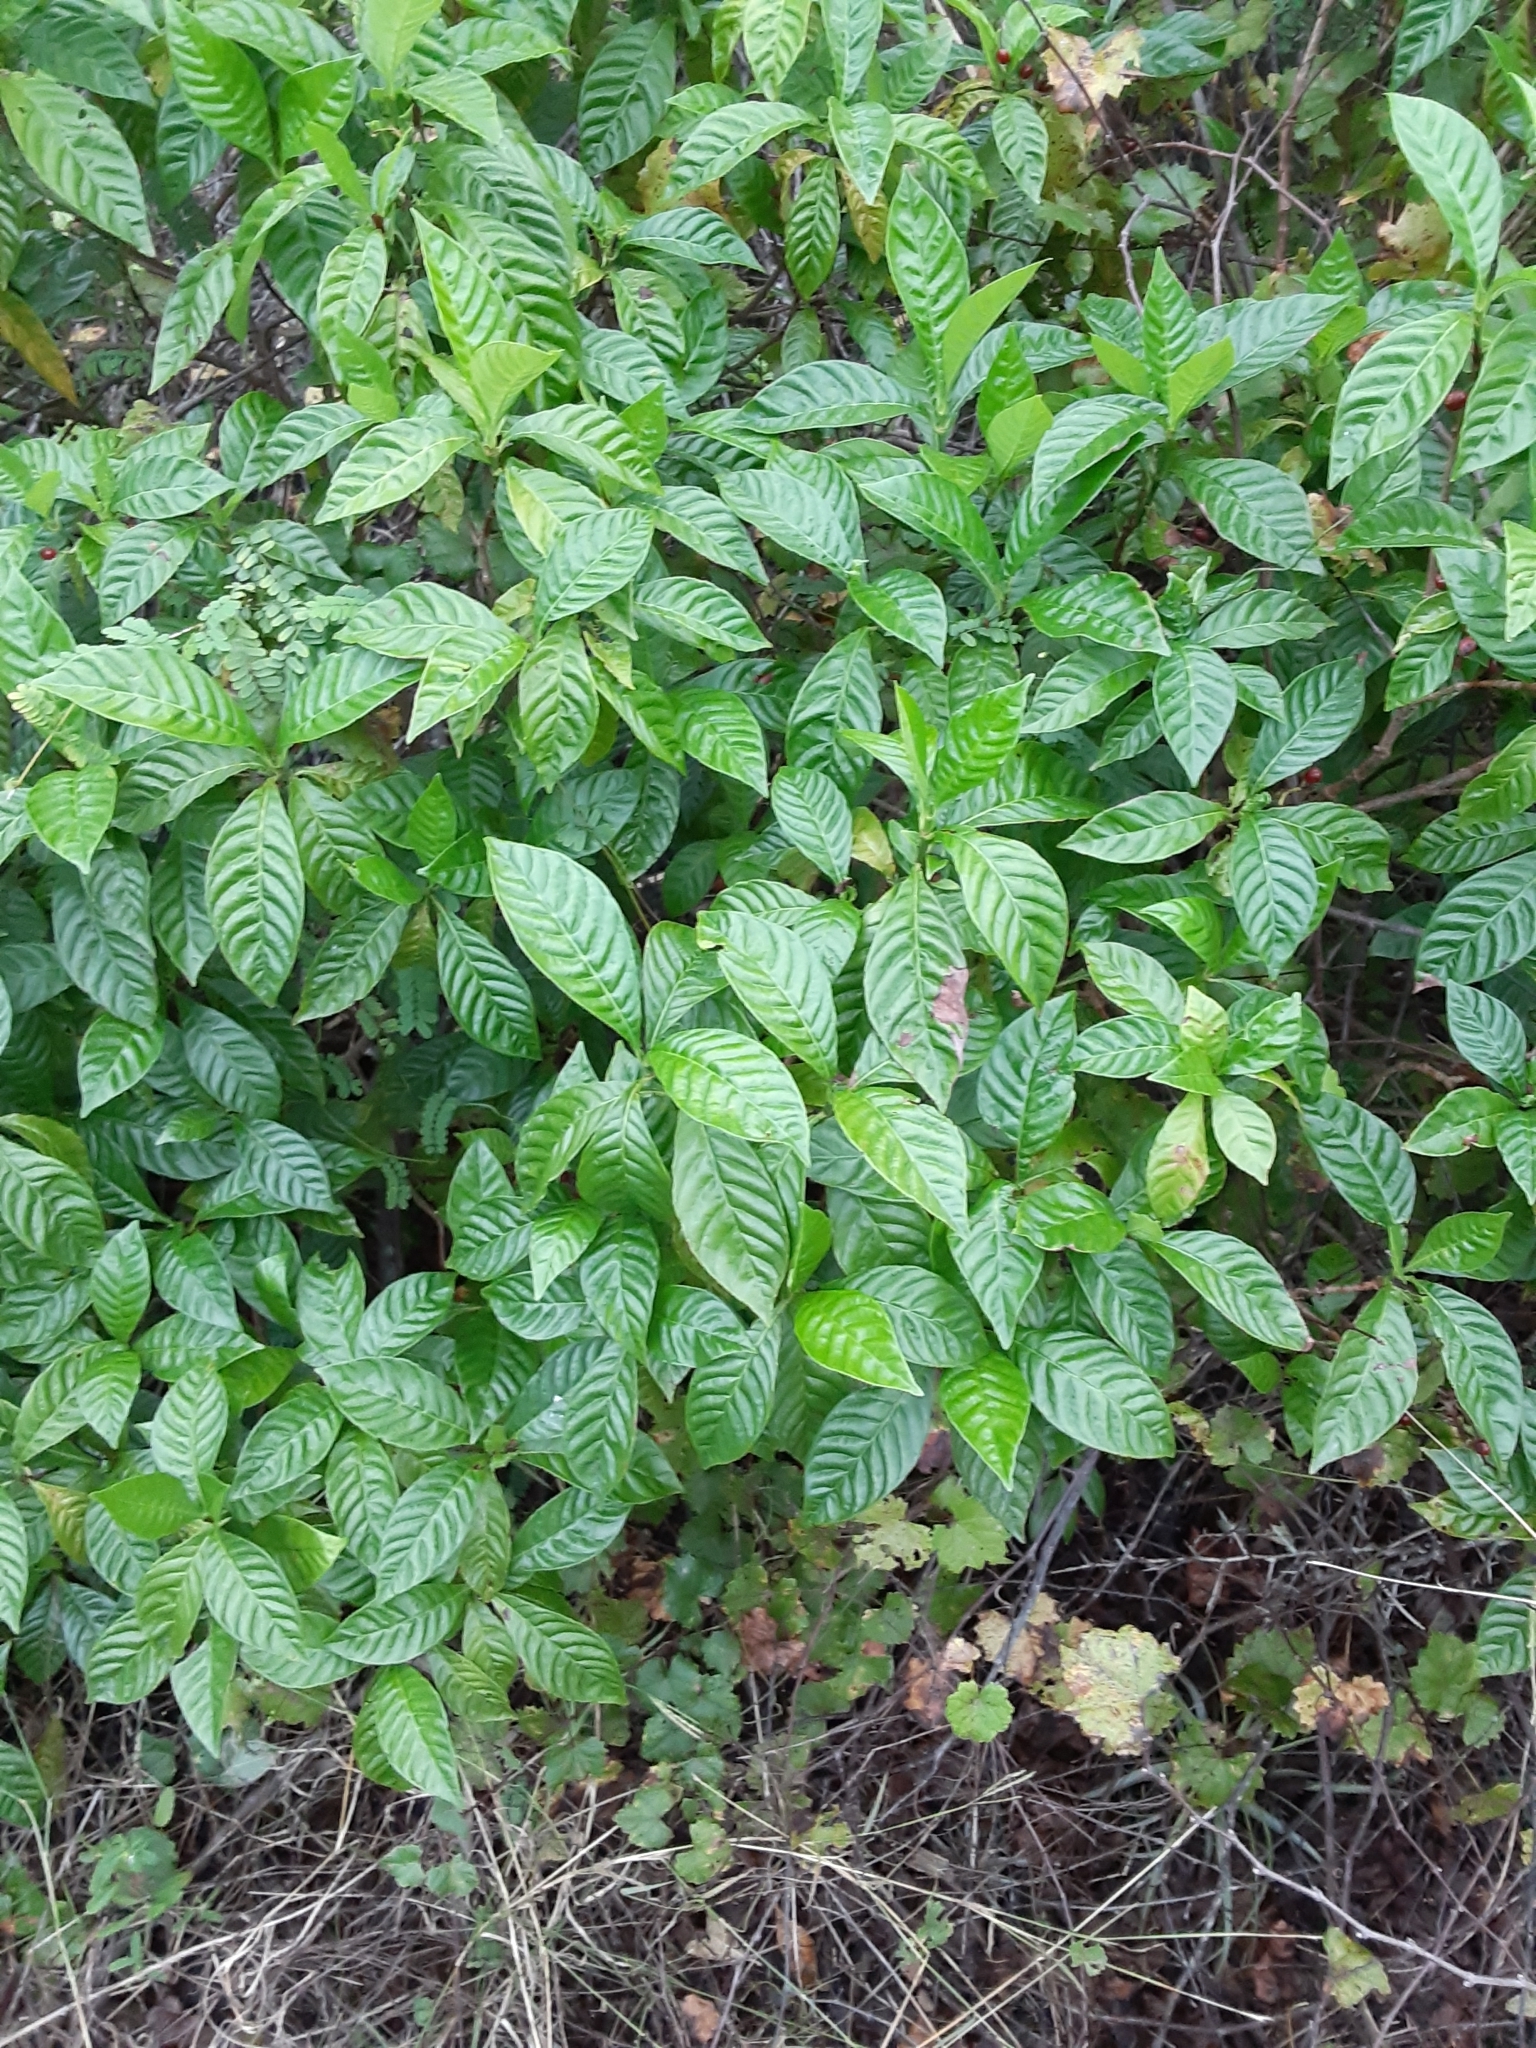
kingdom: Plantae
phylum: Tracheophyta
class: Magnoliopsida
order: Gentianales
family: Rubiaceae
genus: Psychotria
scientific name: Psychotria nervosa
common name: Bastard cankerberry
